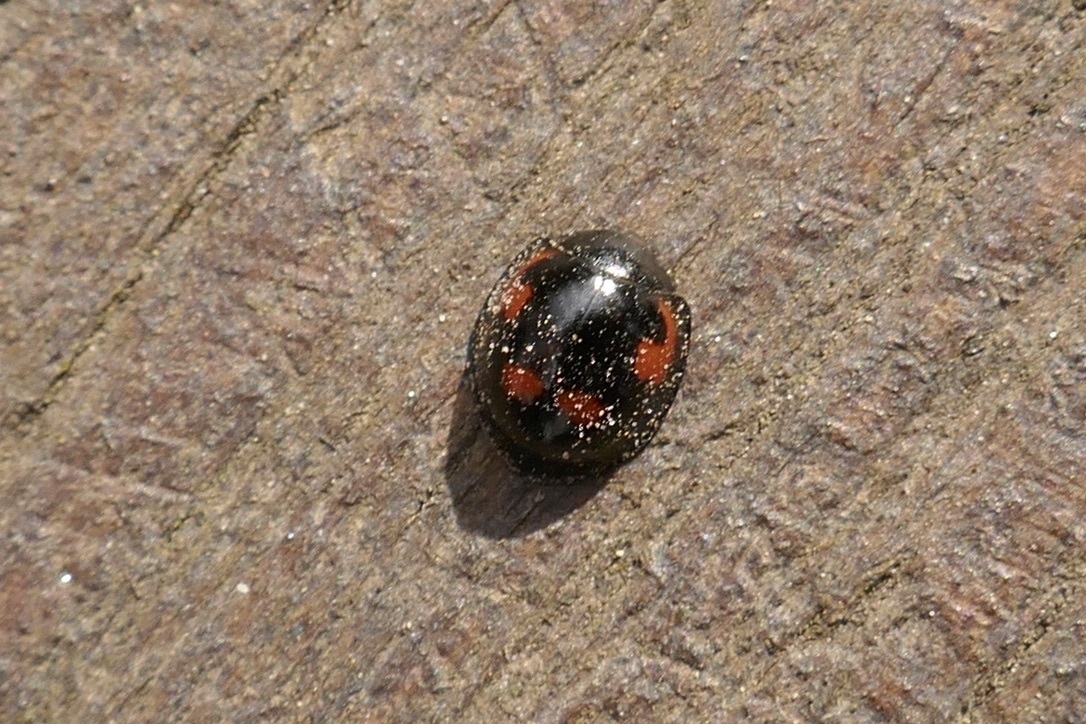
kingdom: Animalia
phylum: Arthropoda
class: Insecta
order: Coleoptera
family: Coccinellidae
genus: Brumus
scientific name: Brumus quadripustulatus
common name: Ladybird beetle
